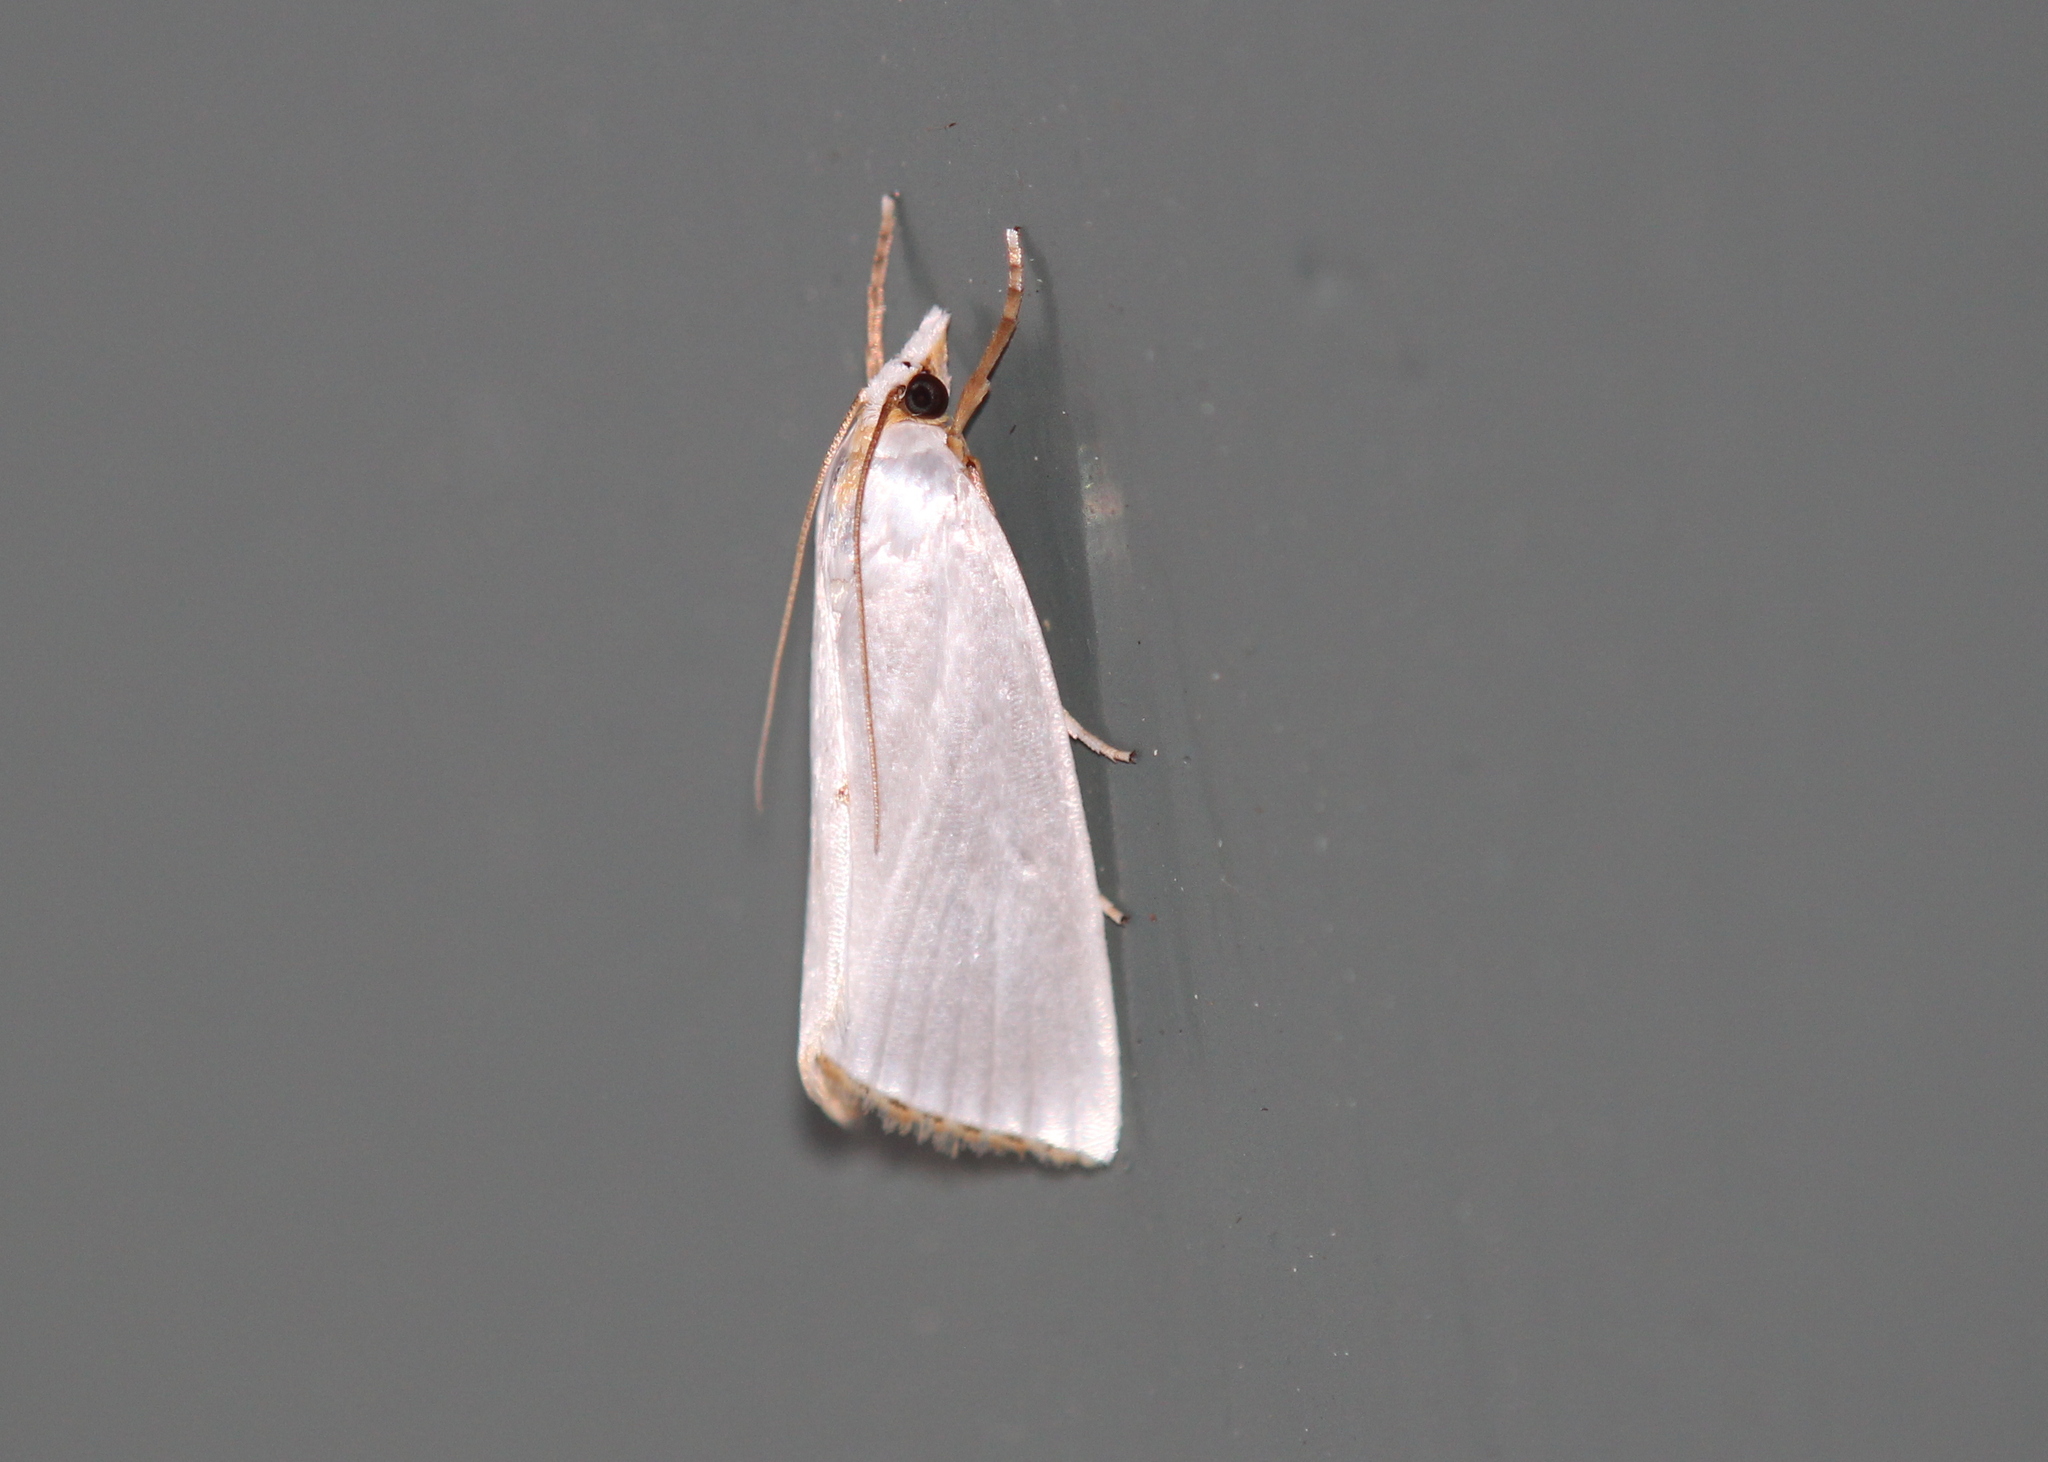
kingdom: Animalia
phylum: Arthropoda
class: Insecta
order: Lepidoptera
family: Crambidae
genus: Argyria
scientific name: Argyria nivalis
